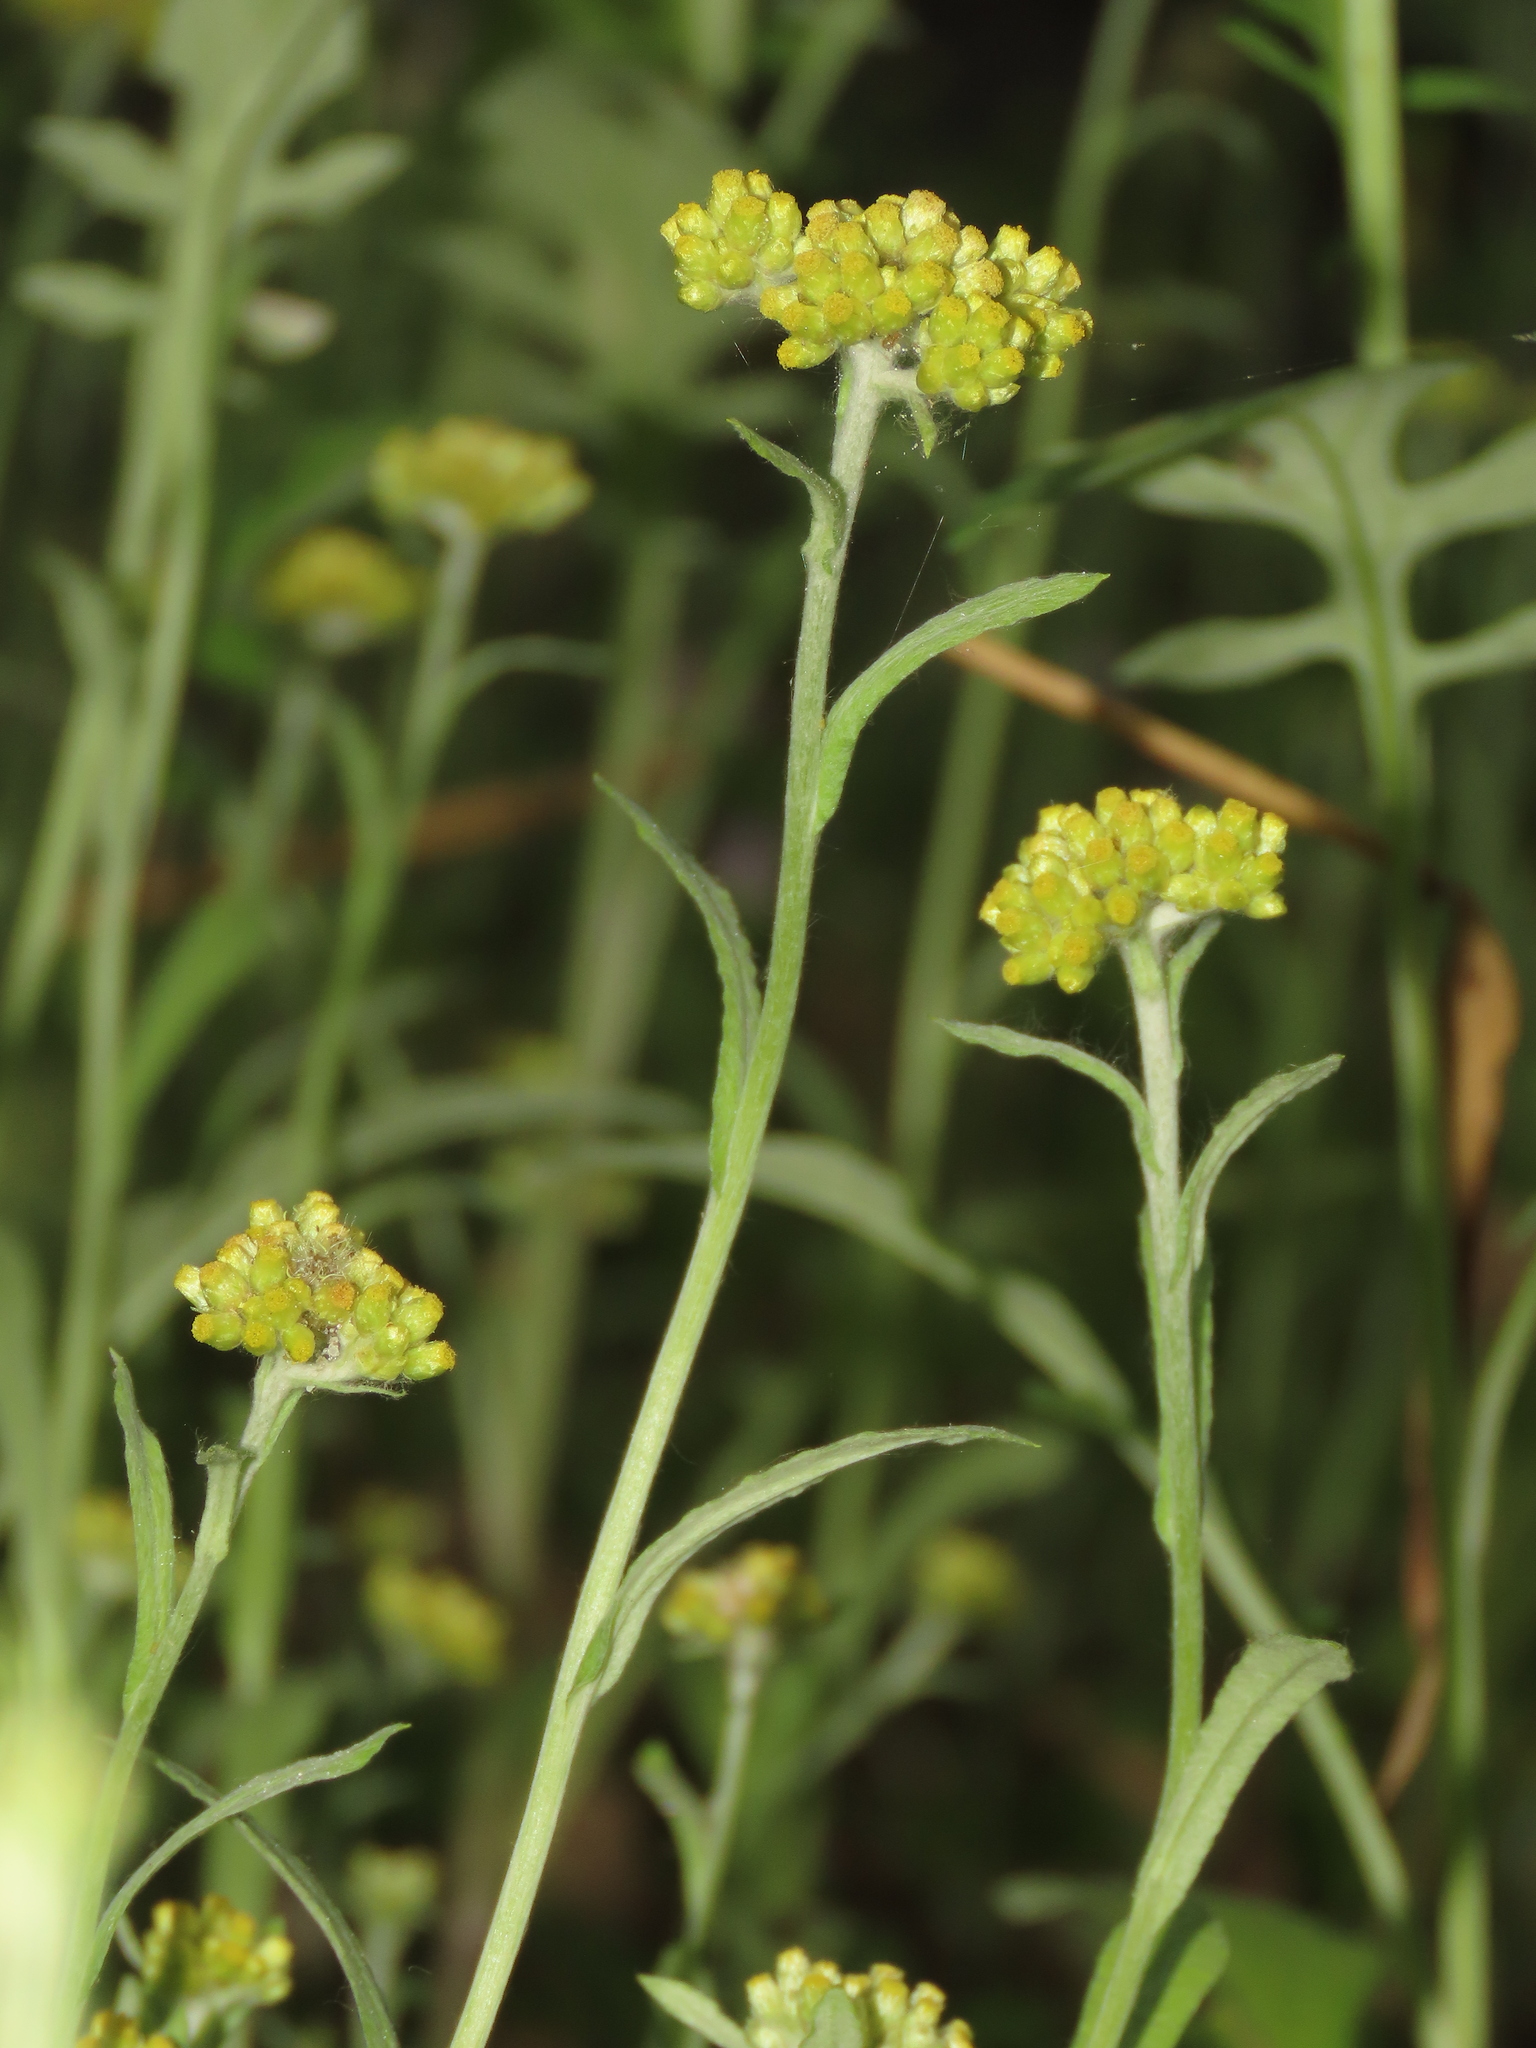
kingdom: Plantae
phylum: Tracheophyta
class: Magnoliopsida
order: Asterales
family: Asteraceae
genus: Pseudognaphalium
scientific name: Pseudognaphalium affine
